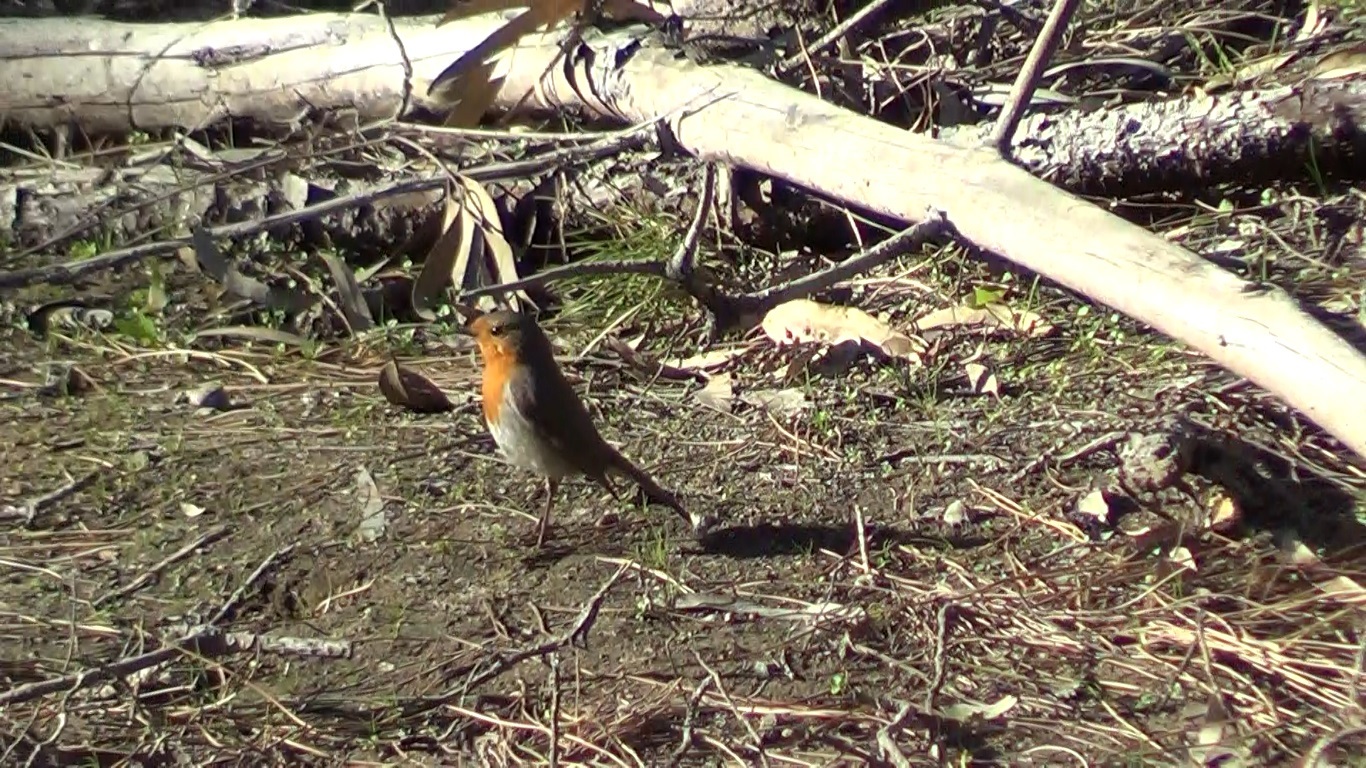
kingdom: Animalia
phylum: Chordata
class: Aves
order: Passeriformes
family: Muscicapidae
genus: Erithacus
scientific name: Erithacus rubecula
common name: European robin
